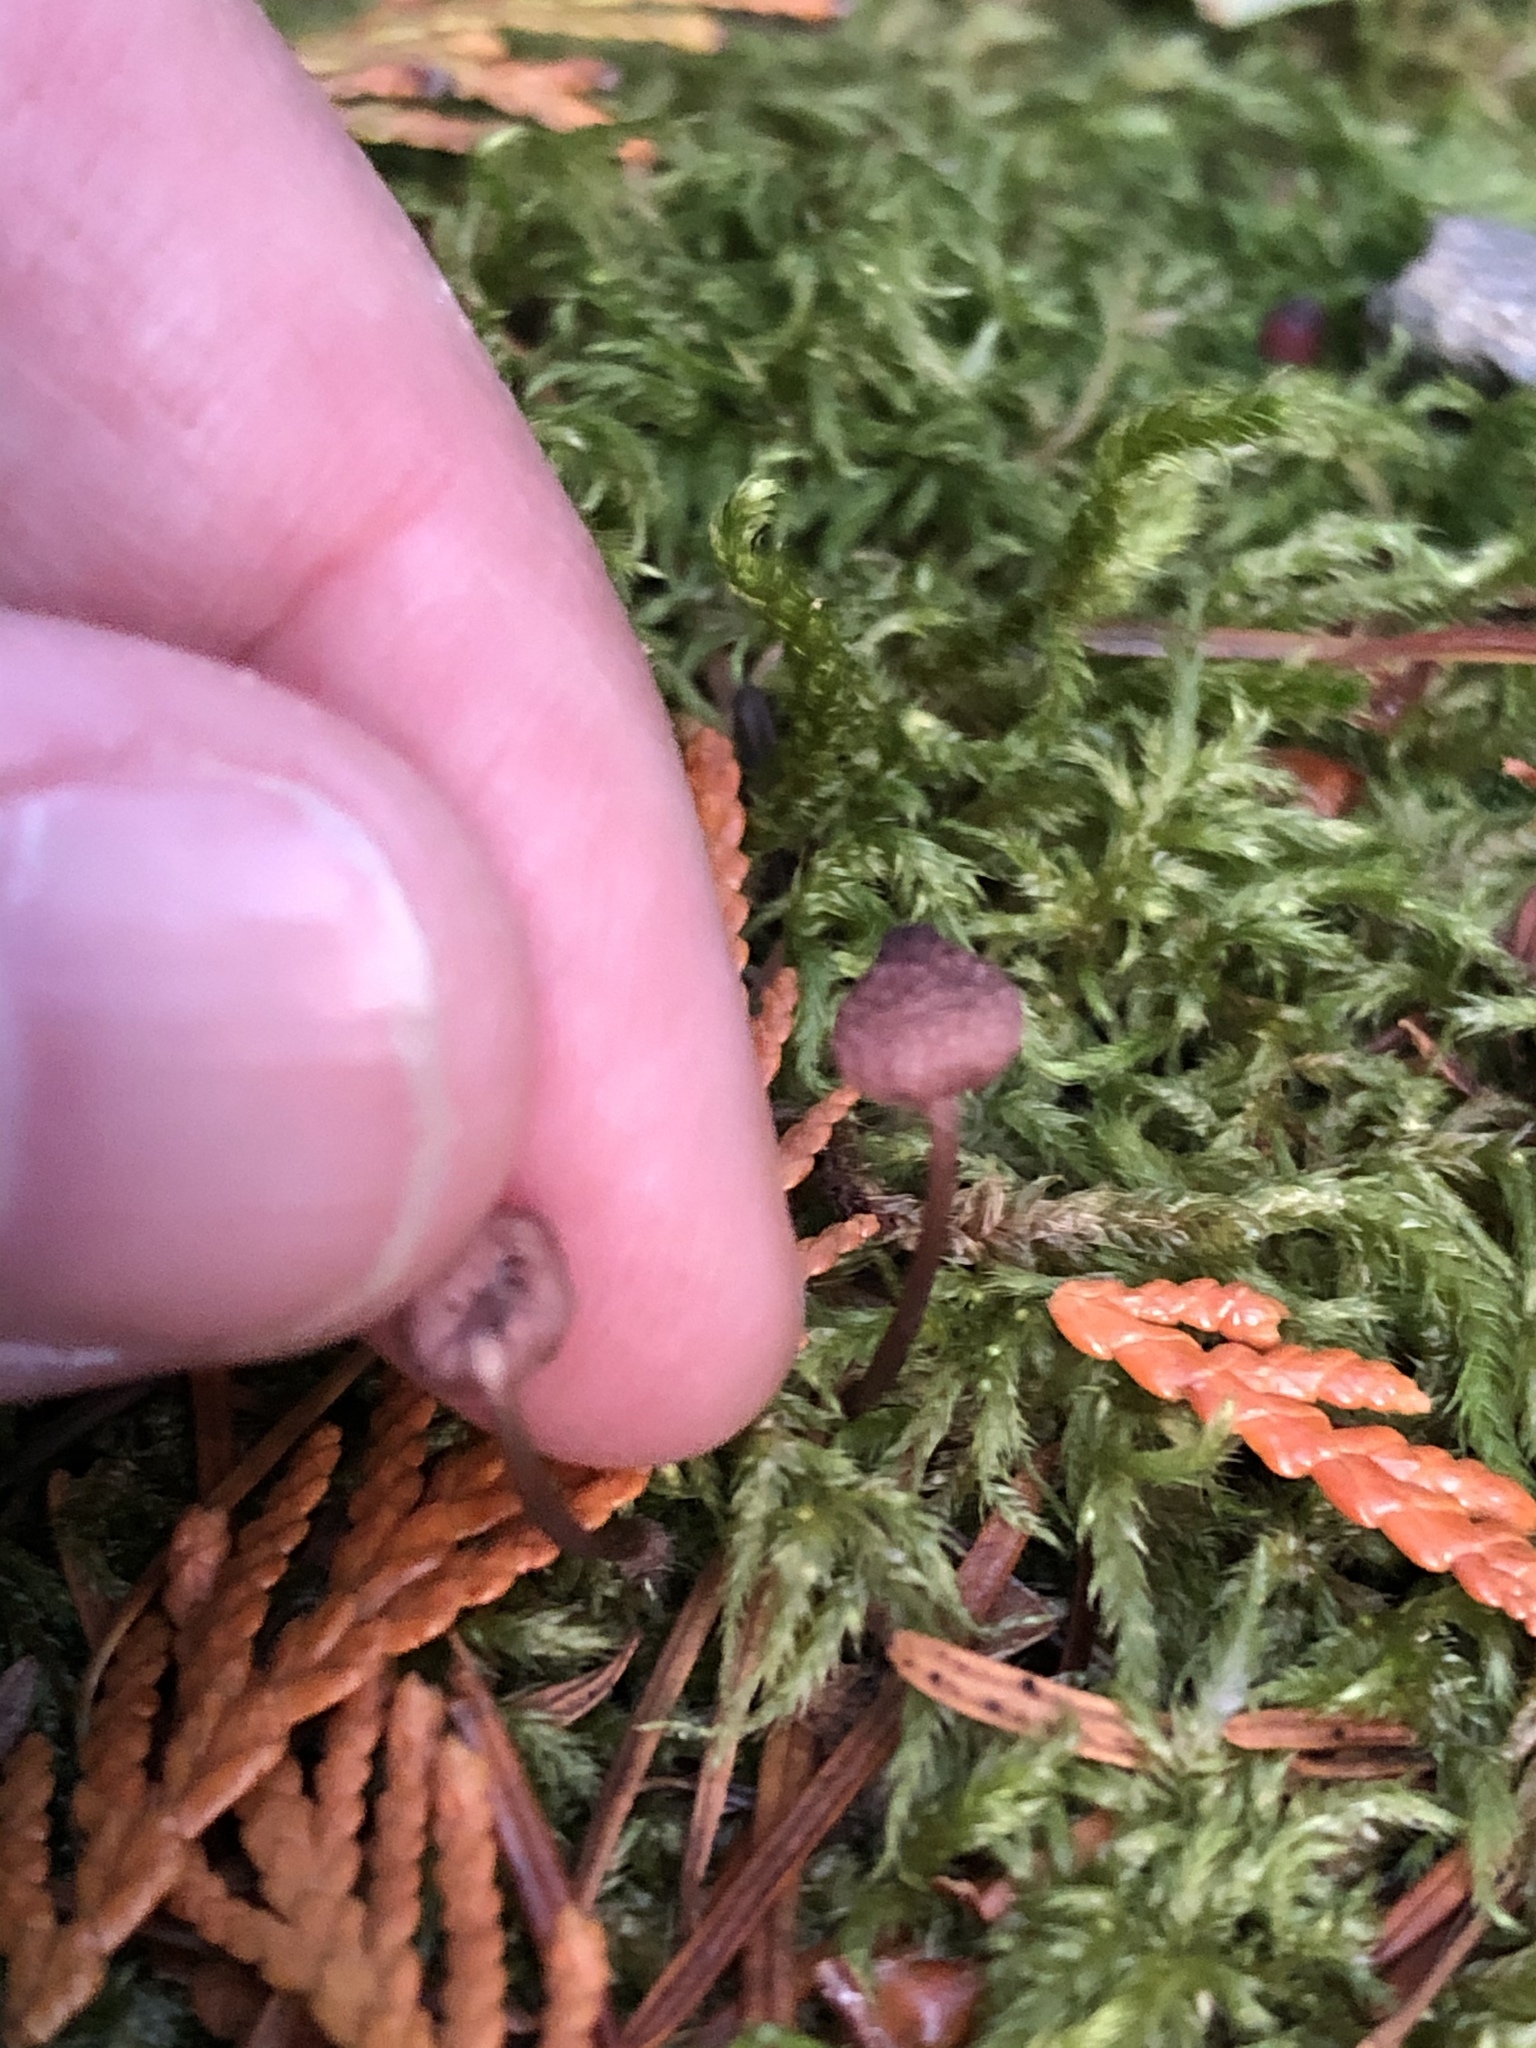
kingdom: Fungi
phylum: Basidiomycota
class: Agaricomycetes
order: Agaricales
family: Mycenaceae
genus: Mycena
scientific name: Mycena purpureofusca
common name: Purple edge bonnet
